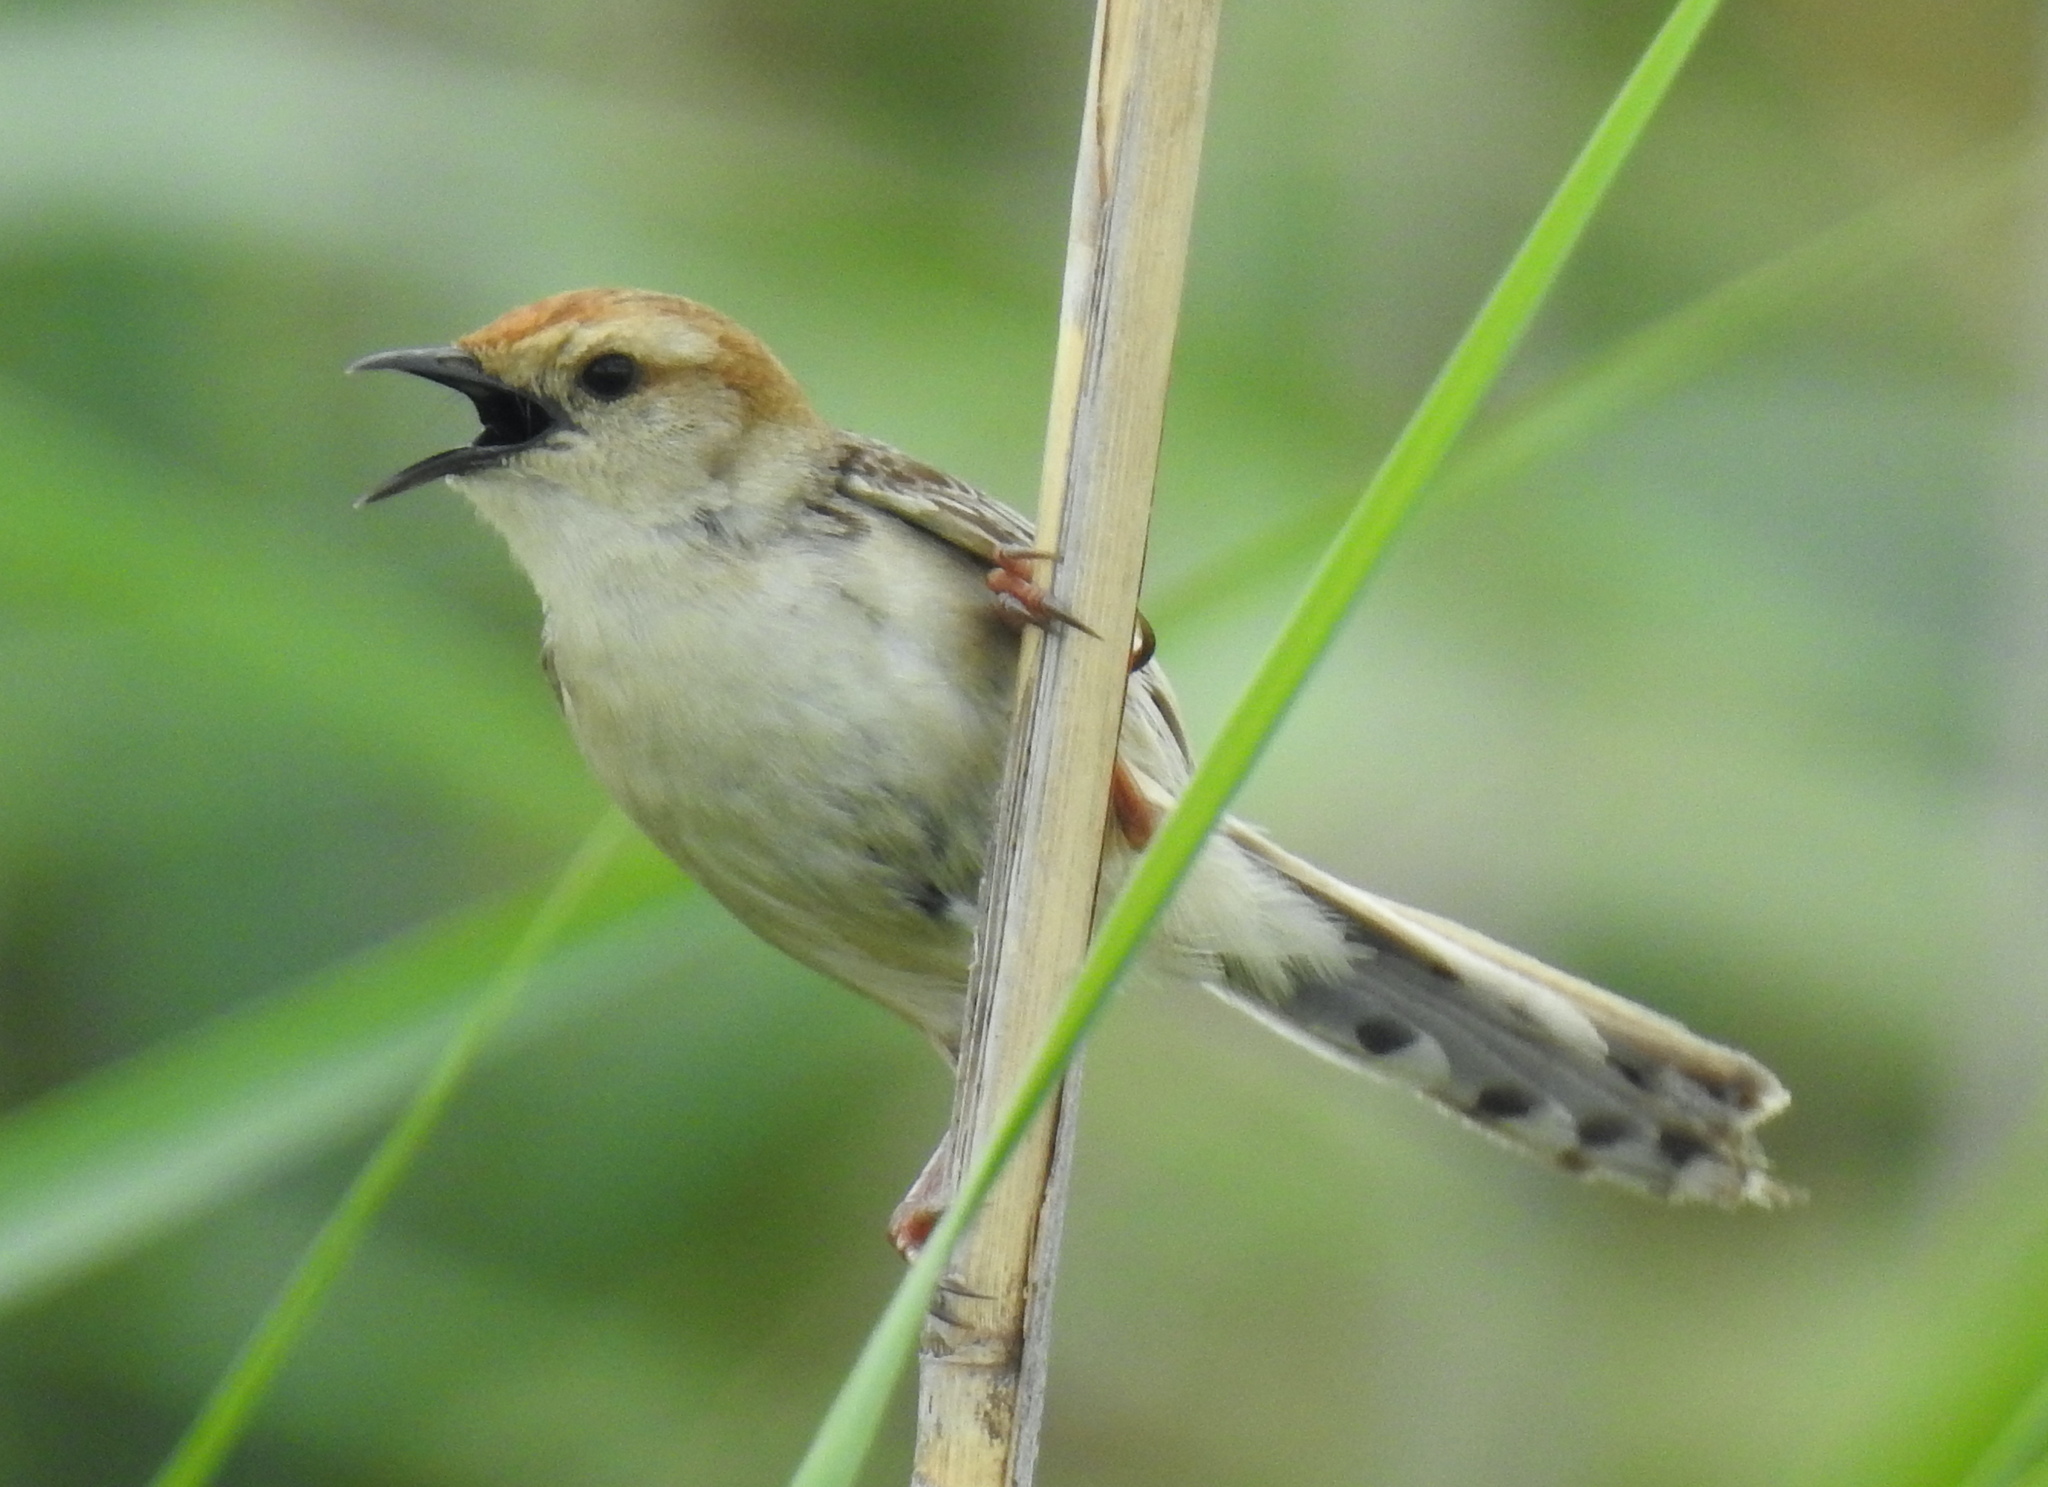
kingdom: Animalia
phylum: Chordata
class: Aves
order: Passeriformes
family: Cisticolidae
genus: Cisticola
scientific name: Cisticola tinniens
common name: Levaillant's cisticola
